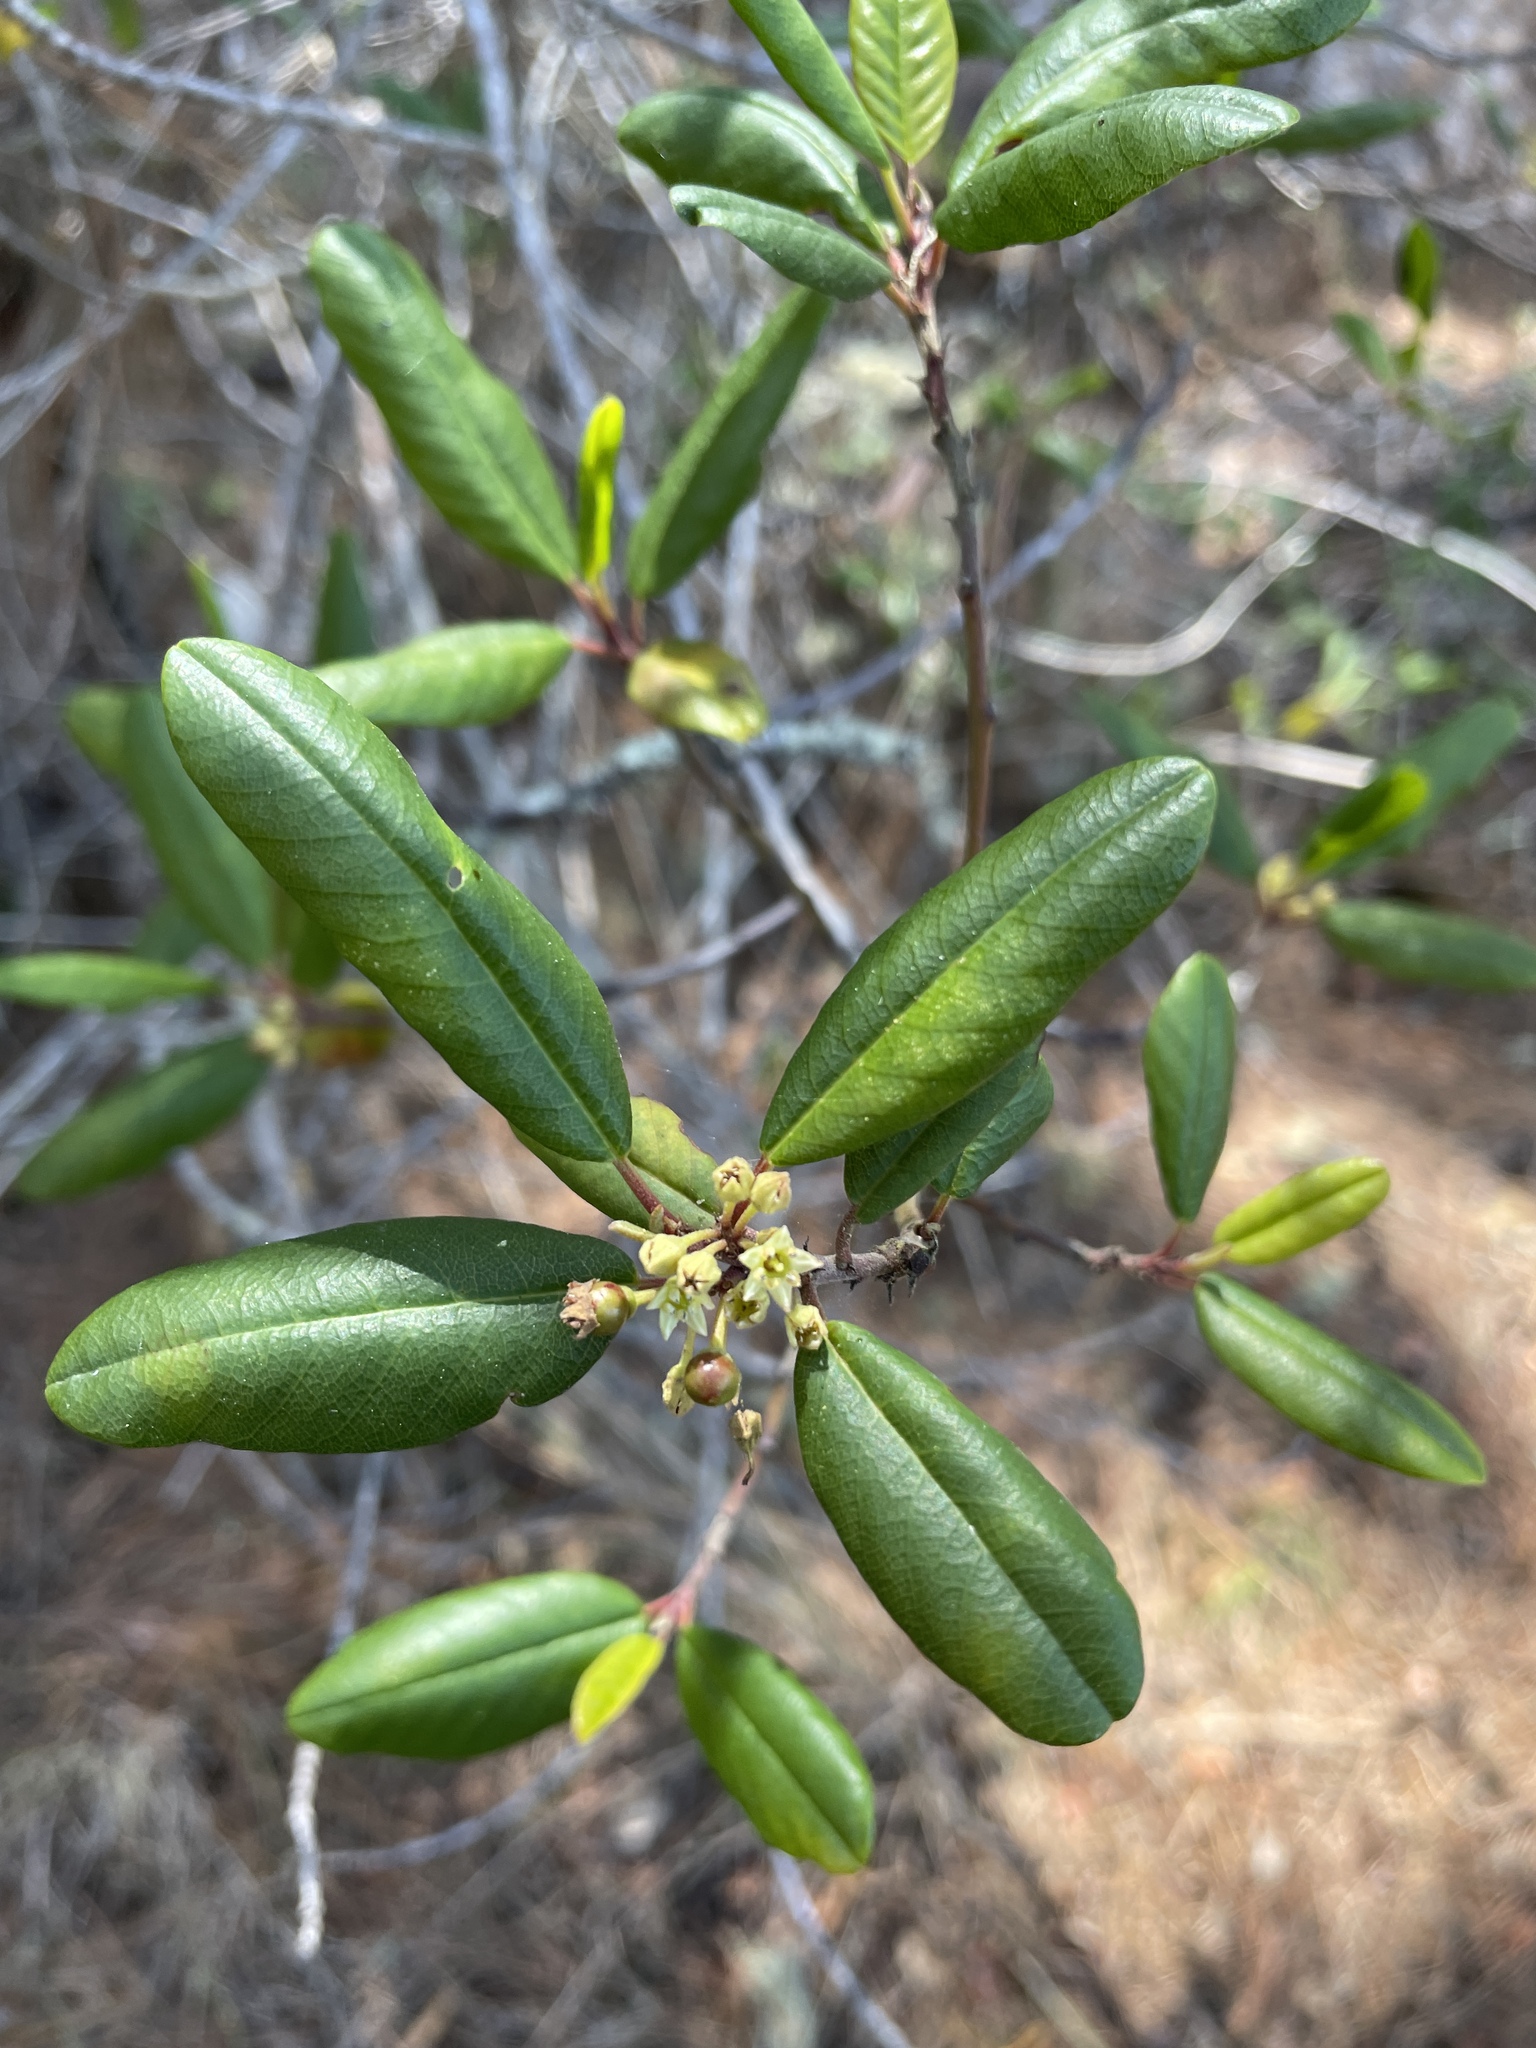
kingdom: Plantae
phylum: Tracheophyta
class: Magnoliopsida
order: Rosales
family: Rhamnaceae
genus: Frangula
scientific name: Frangula californica
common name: California buckthorn
